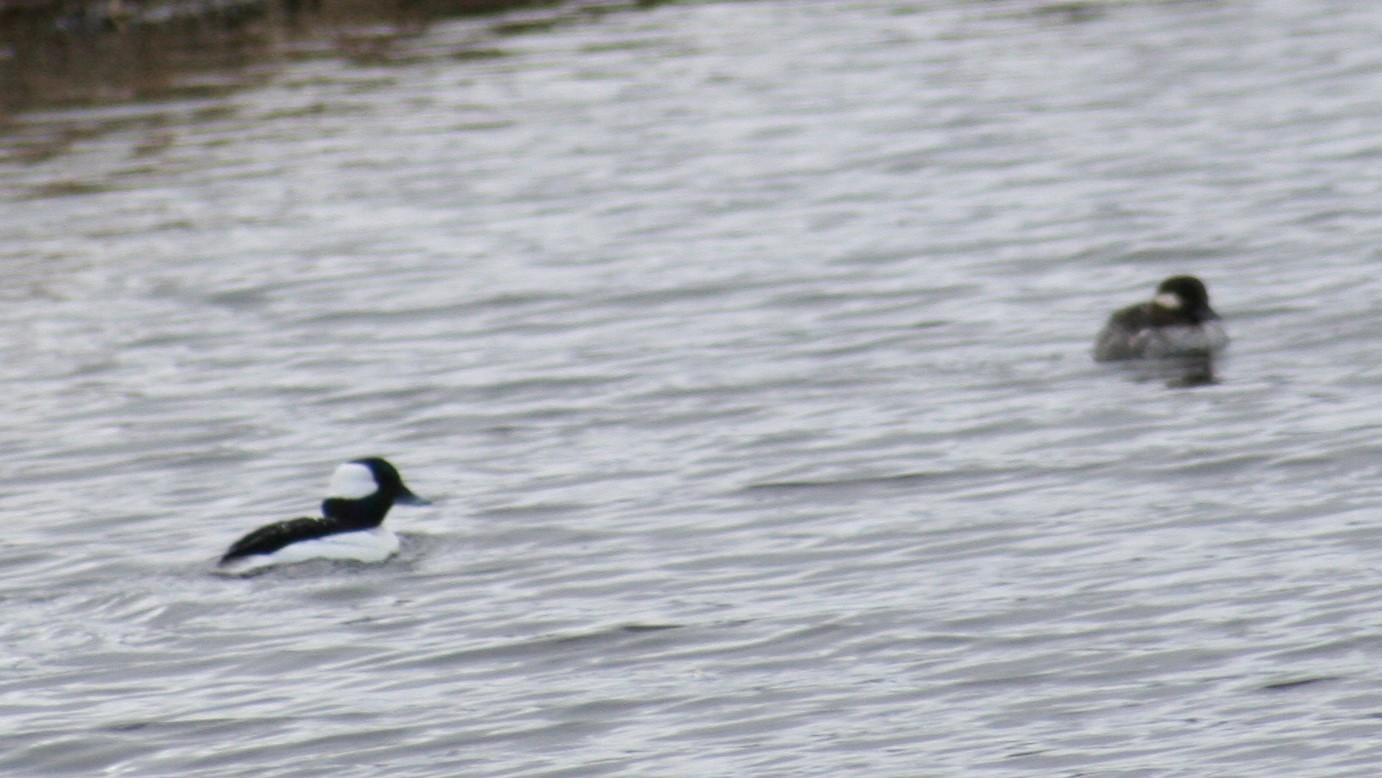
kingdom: Animalia
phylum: Chordata
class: Aves
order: Anseriformes
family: Anatidae
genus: Bucephala
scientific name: Bucephala albeola
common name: Bufflehead
